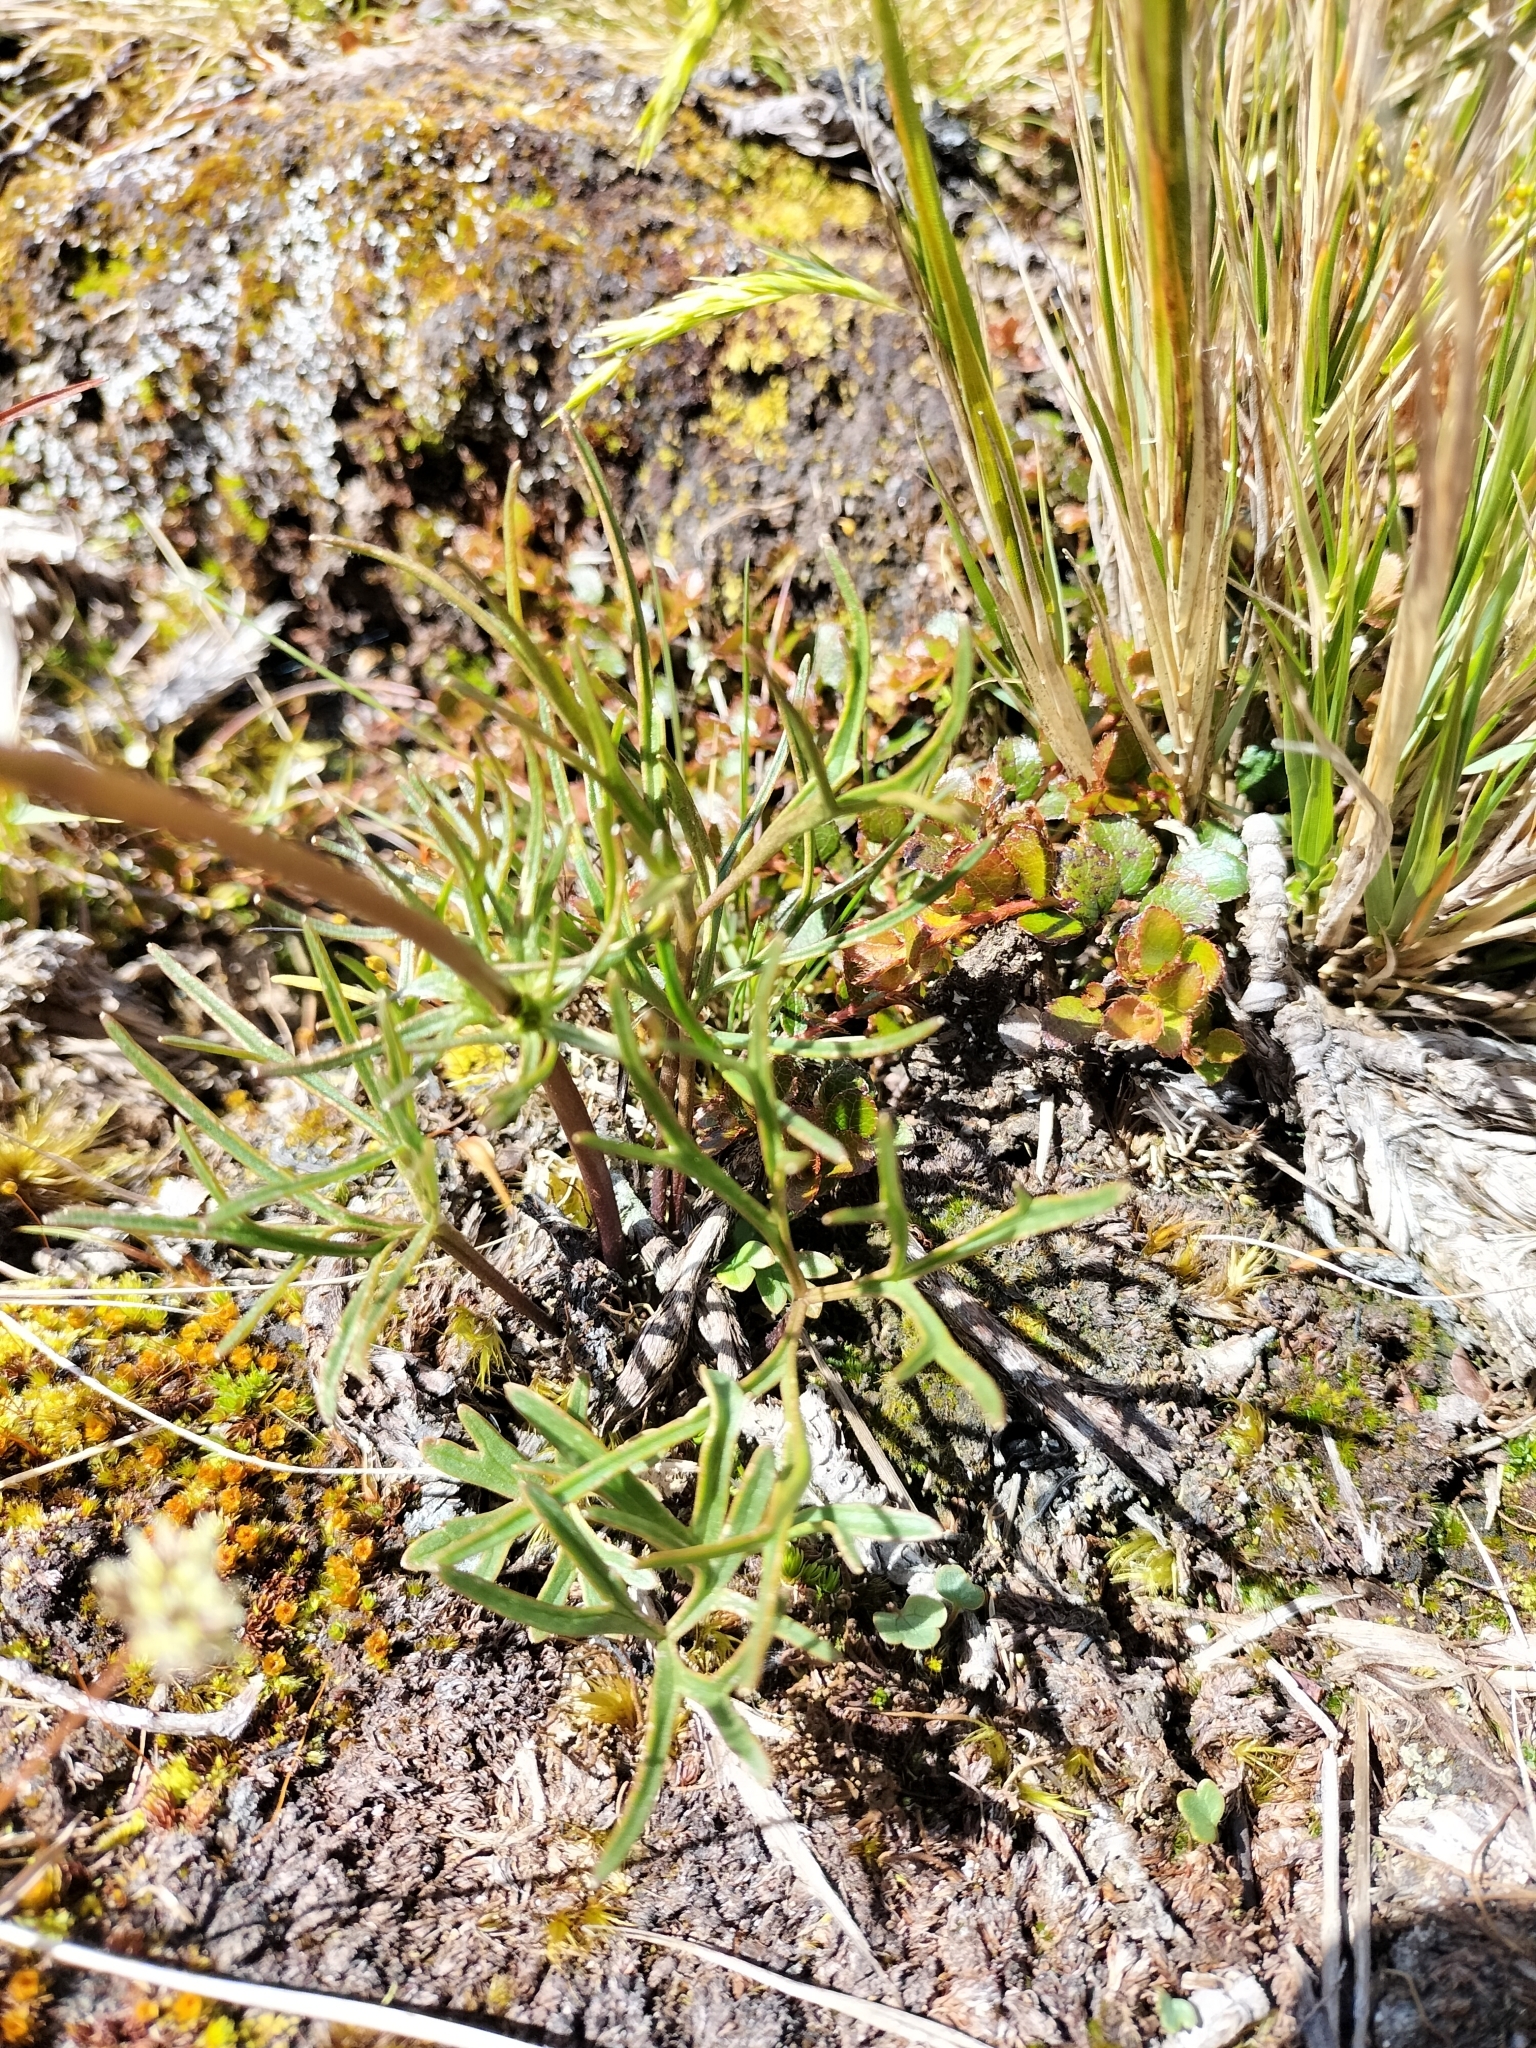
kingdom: Plantae
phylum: Tracheophyta
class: Magnoliopsida
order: Ranunculales
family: Ranunculaceae
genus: Ranunculus
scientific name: Ranunculus verticillatus
